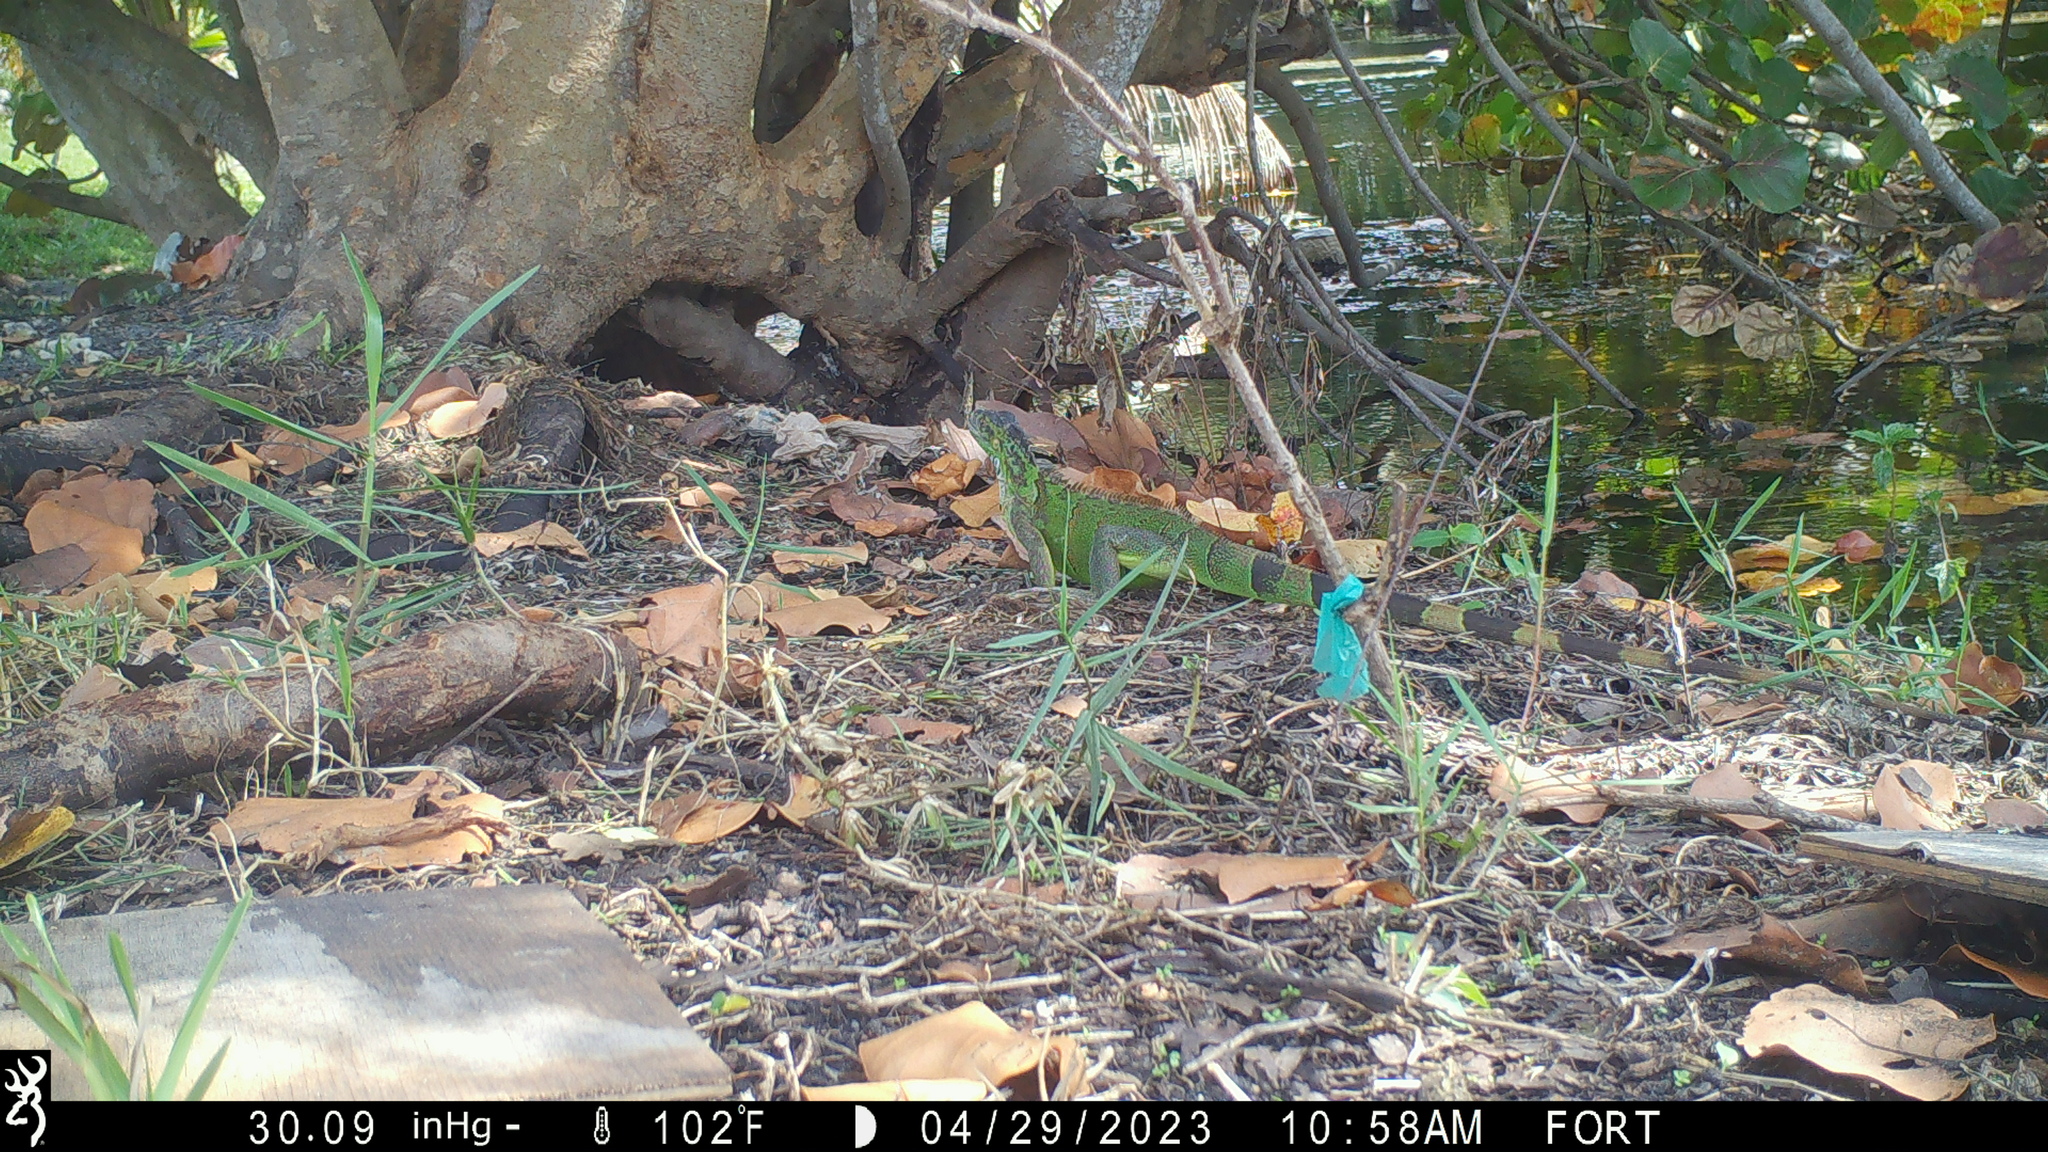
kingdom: Animalia
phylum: Chordata
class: Squamata
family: Iguanidae
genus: Iguana
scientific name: Iguana iguana
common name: Green iguana
